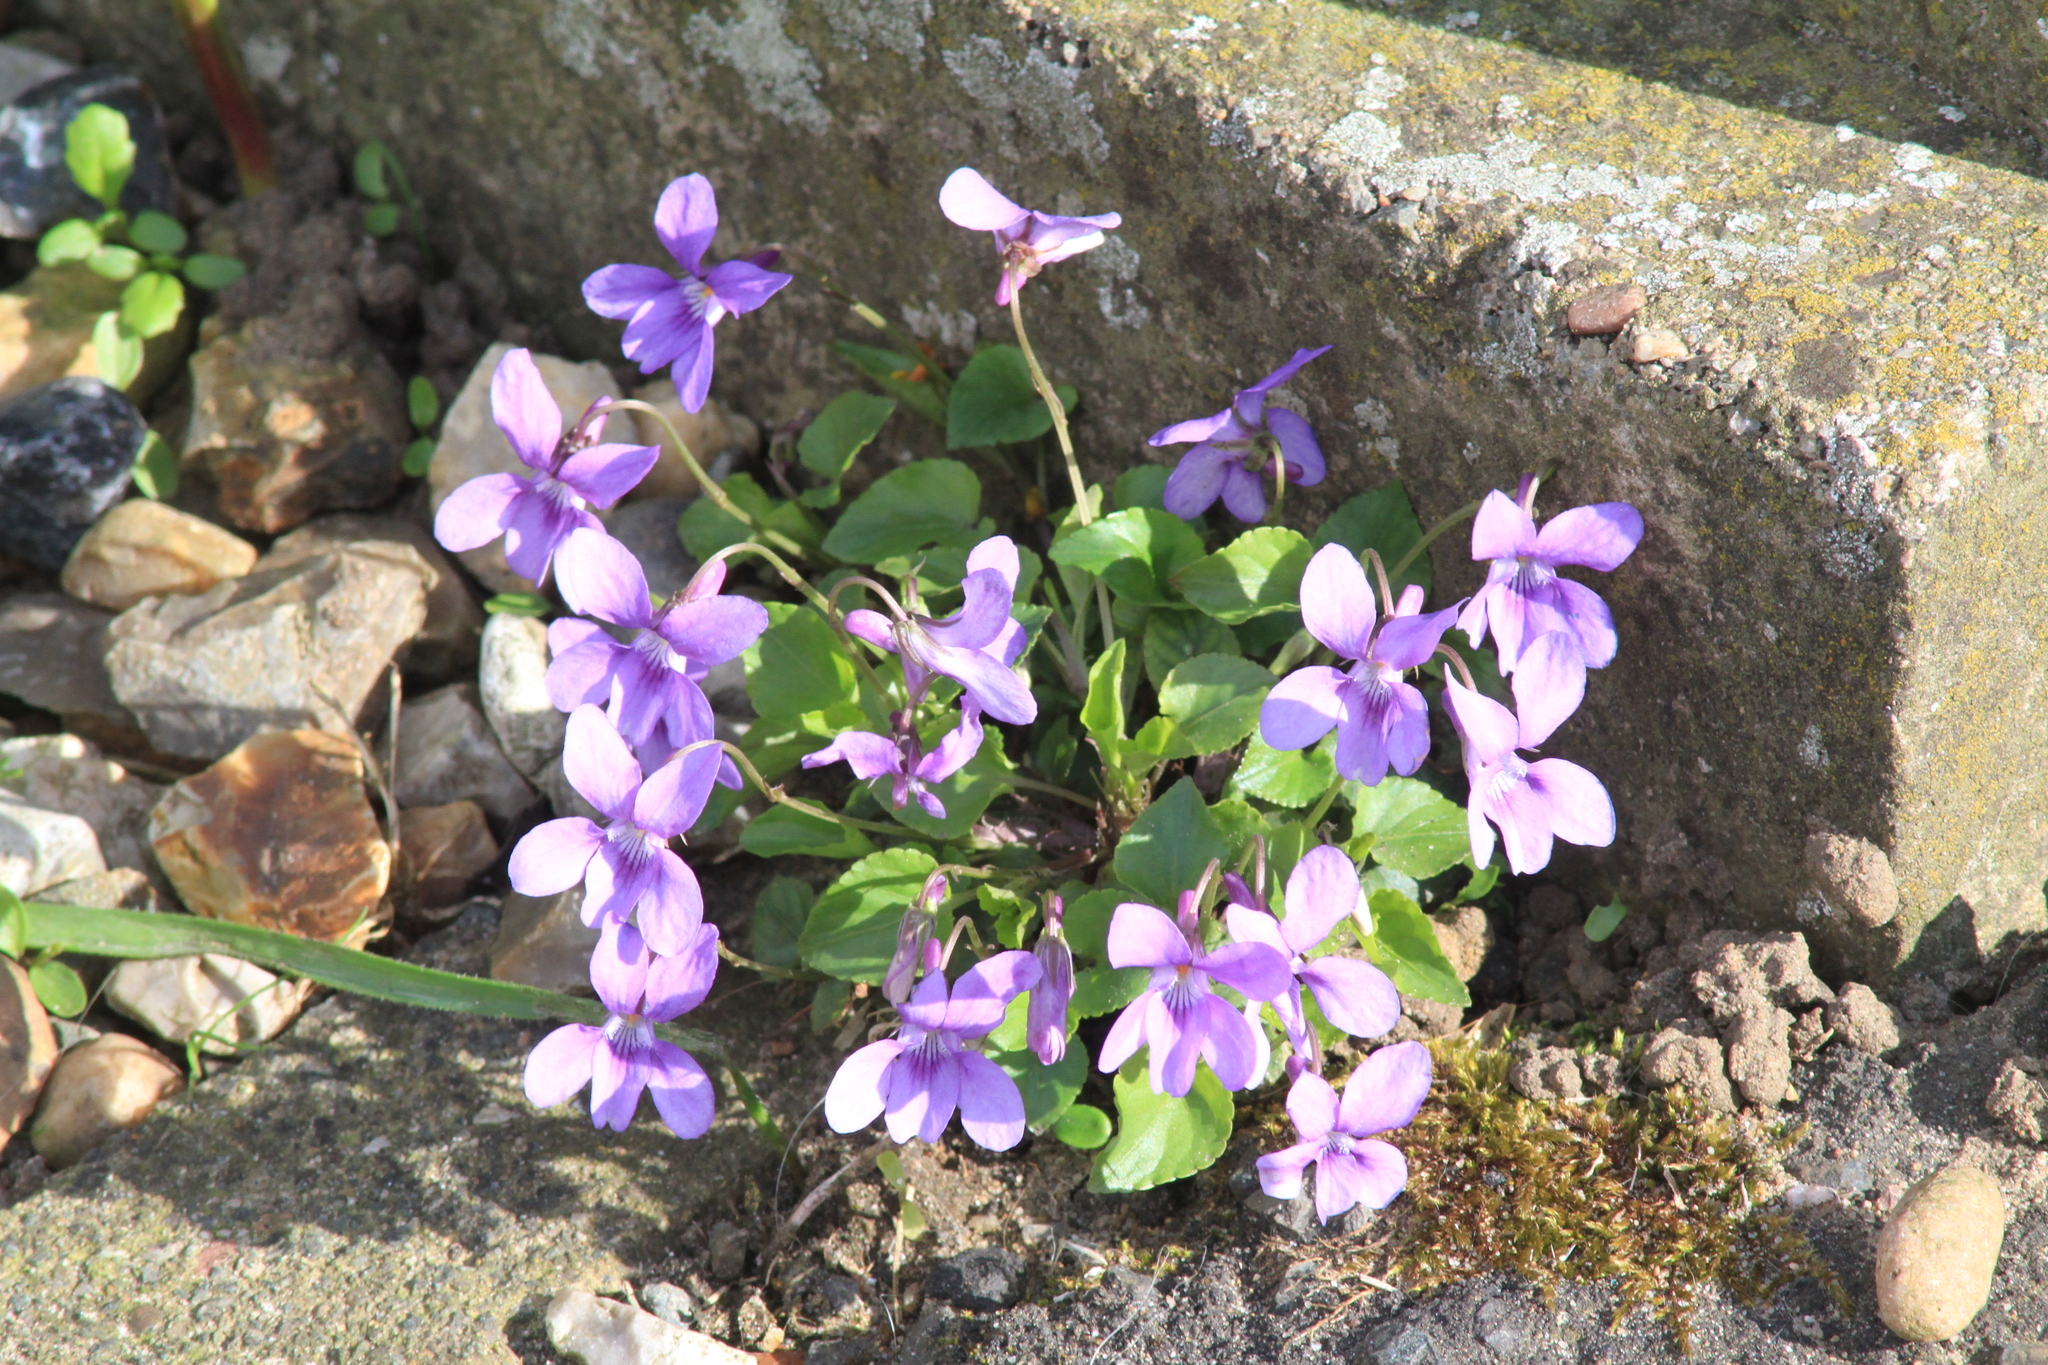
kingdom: Plantae
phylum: Tracheophyta
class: Magnoliopsida
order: Malpighiales
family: Violaceae
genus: Viola
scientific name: Viola reichenbachiana
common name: Early dog-violet
